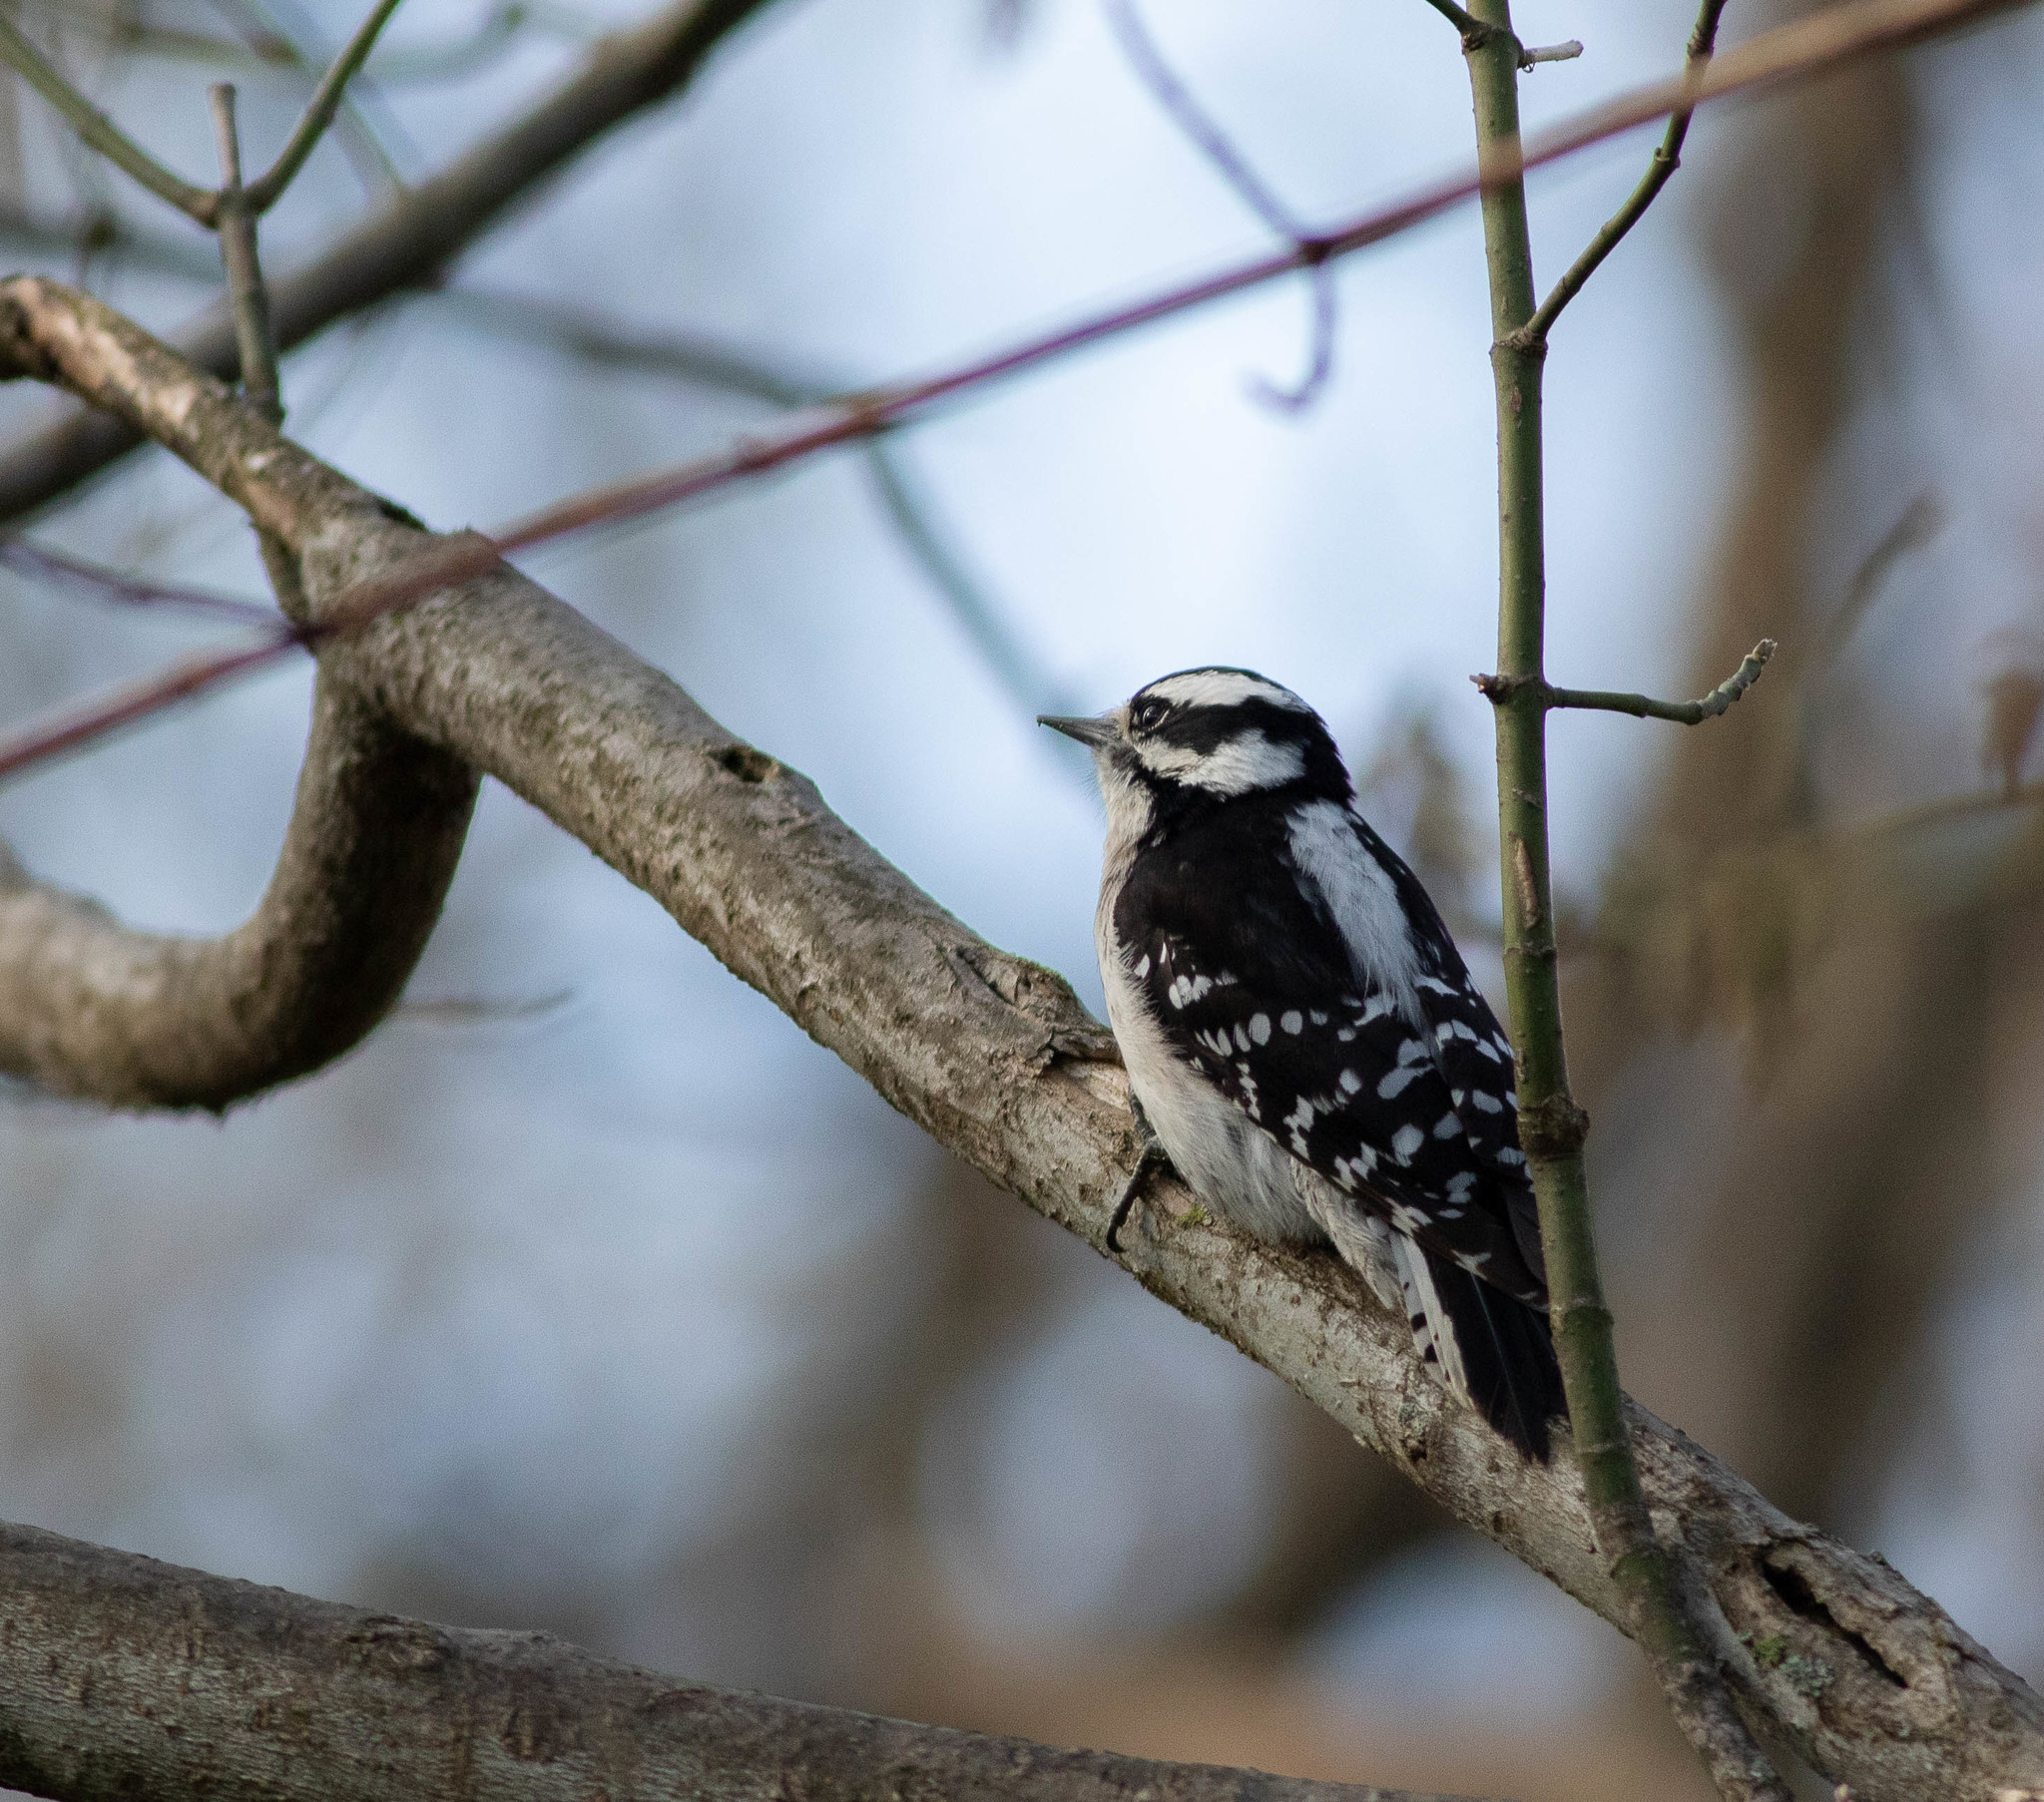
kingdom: Animalia
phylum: Chordata
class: Aves
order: Piciformes
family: Picidae
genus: Dryobates
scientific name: Dryobates pubescens
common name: Downy woodpecker
